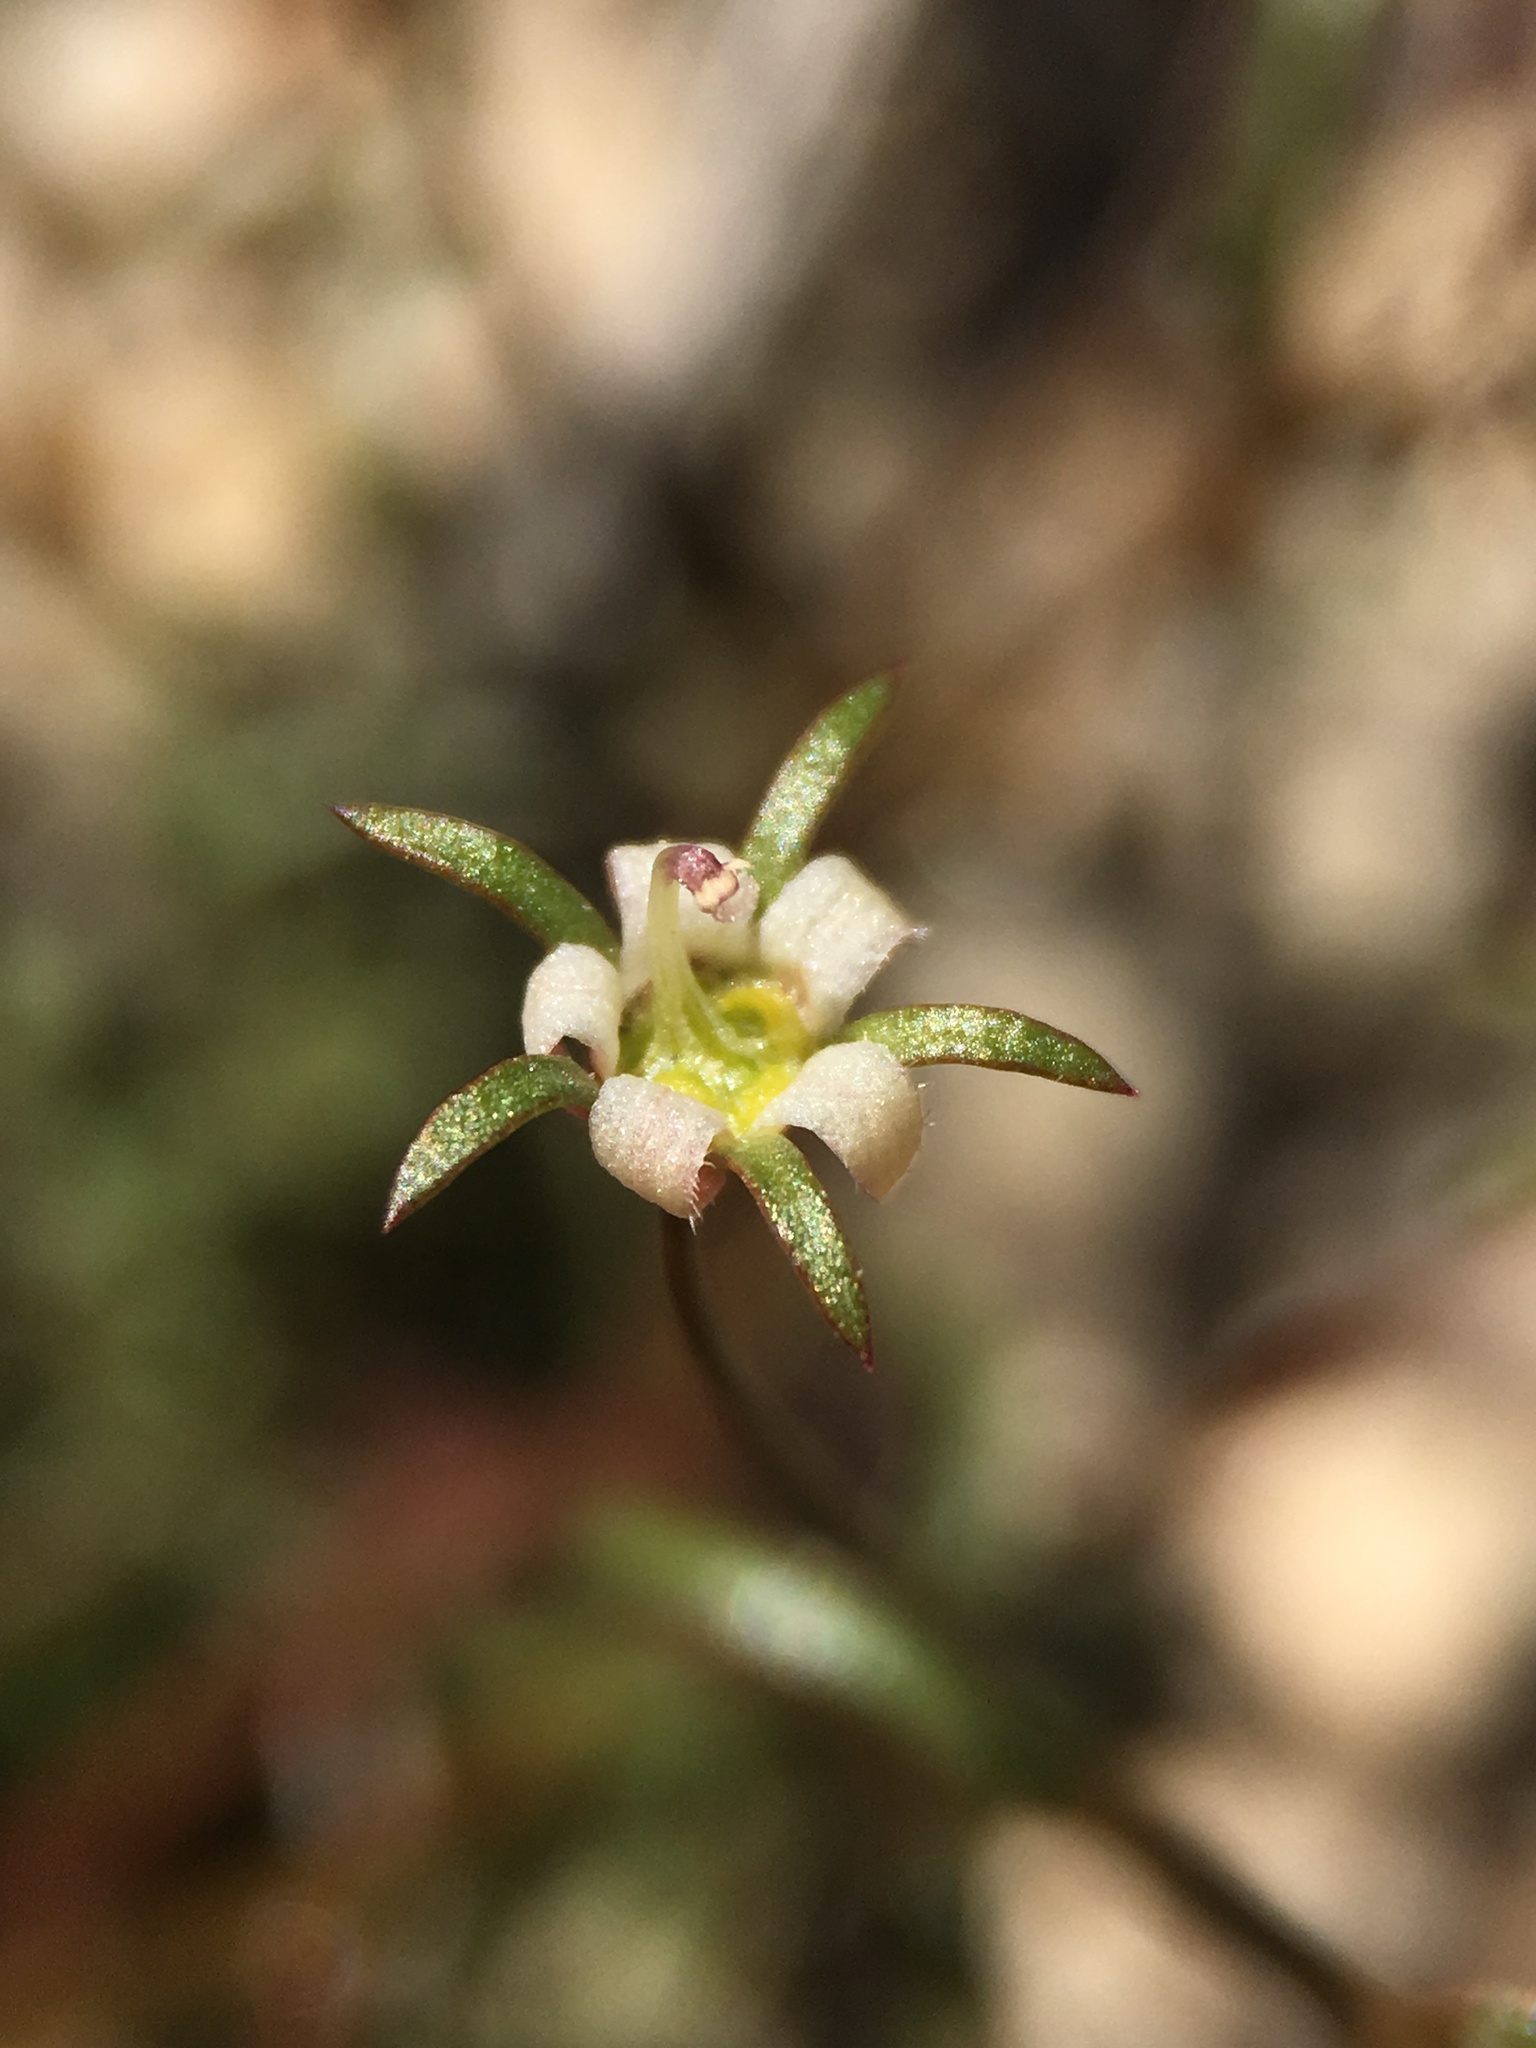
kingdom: Plantae
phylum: Tracheophyta
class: Magnoliopsida
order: Asterales
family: Campanulaceae
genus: Nemacladus
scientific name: Nemacladus glanduliferus
